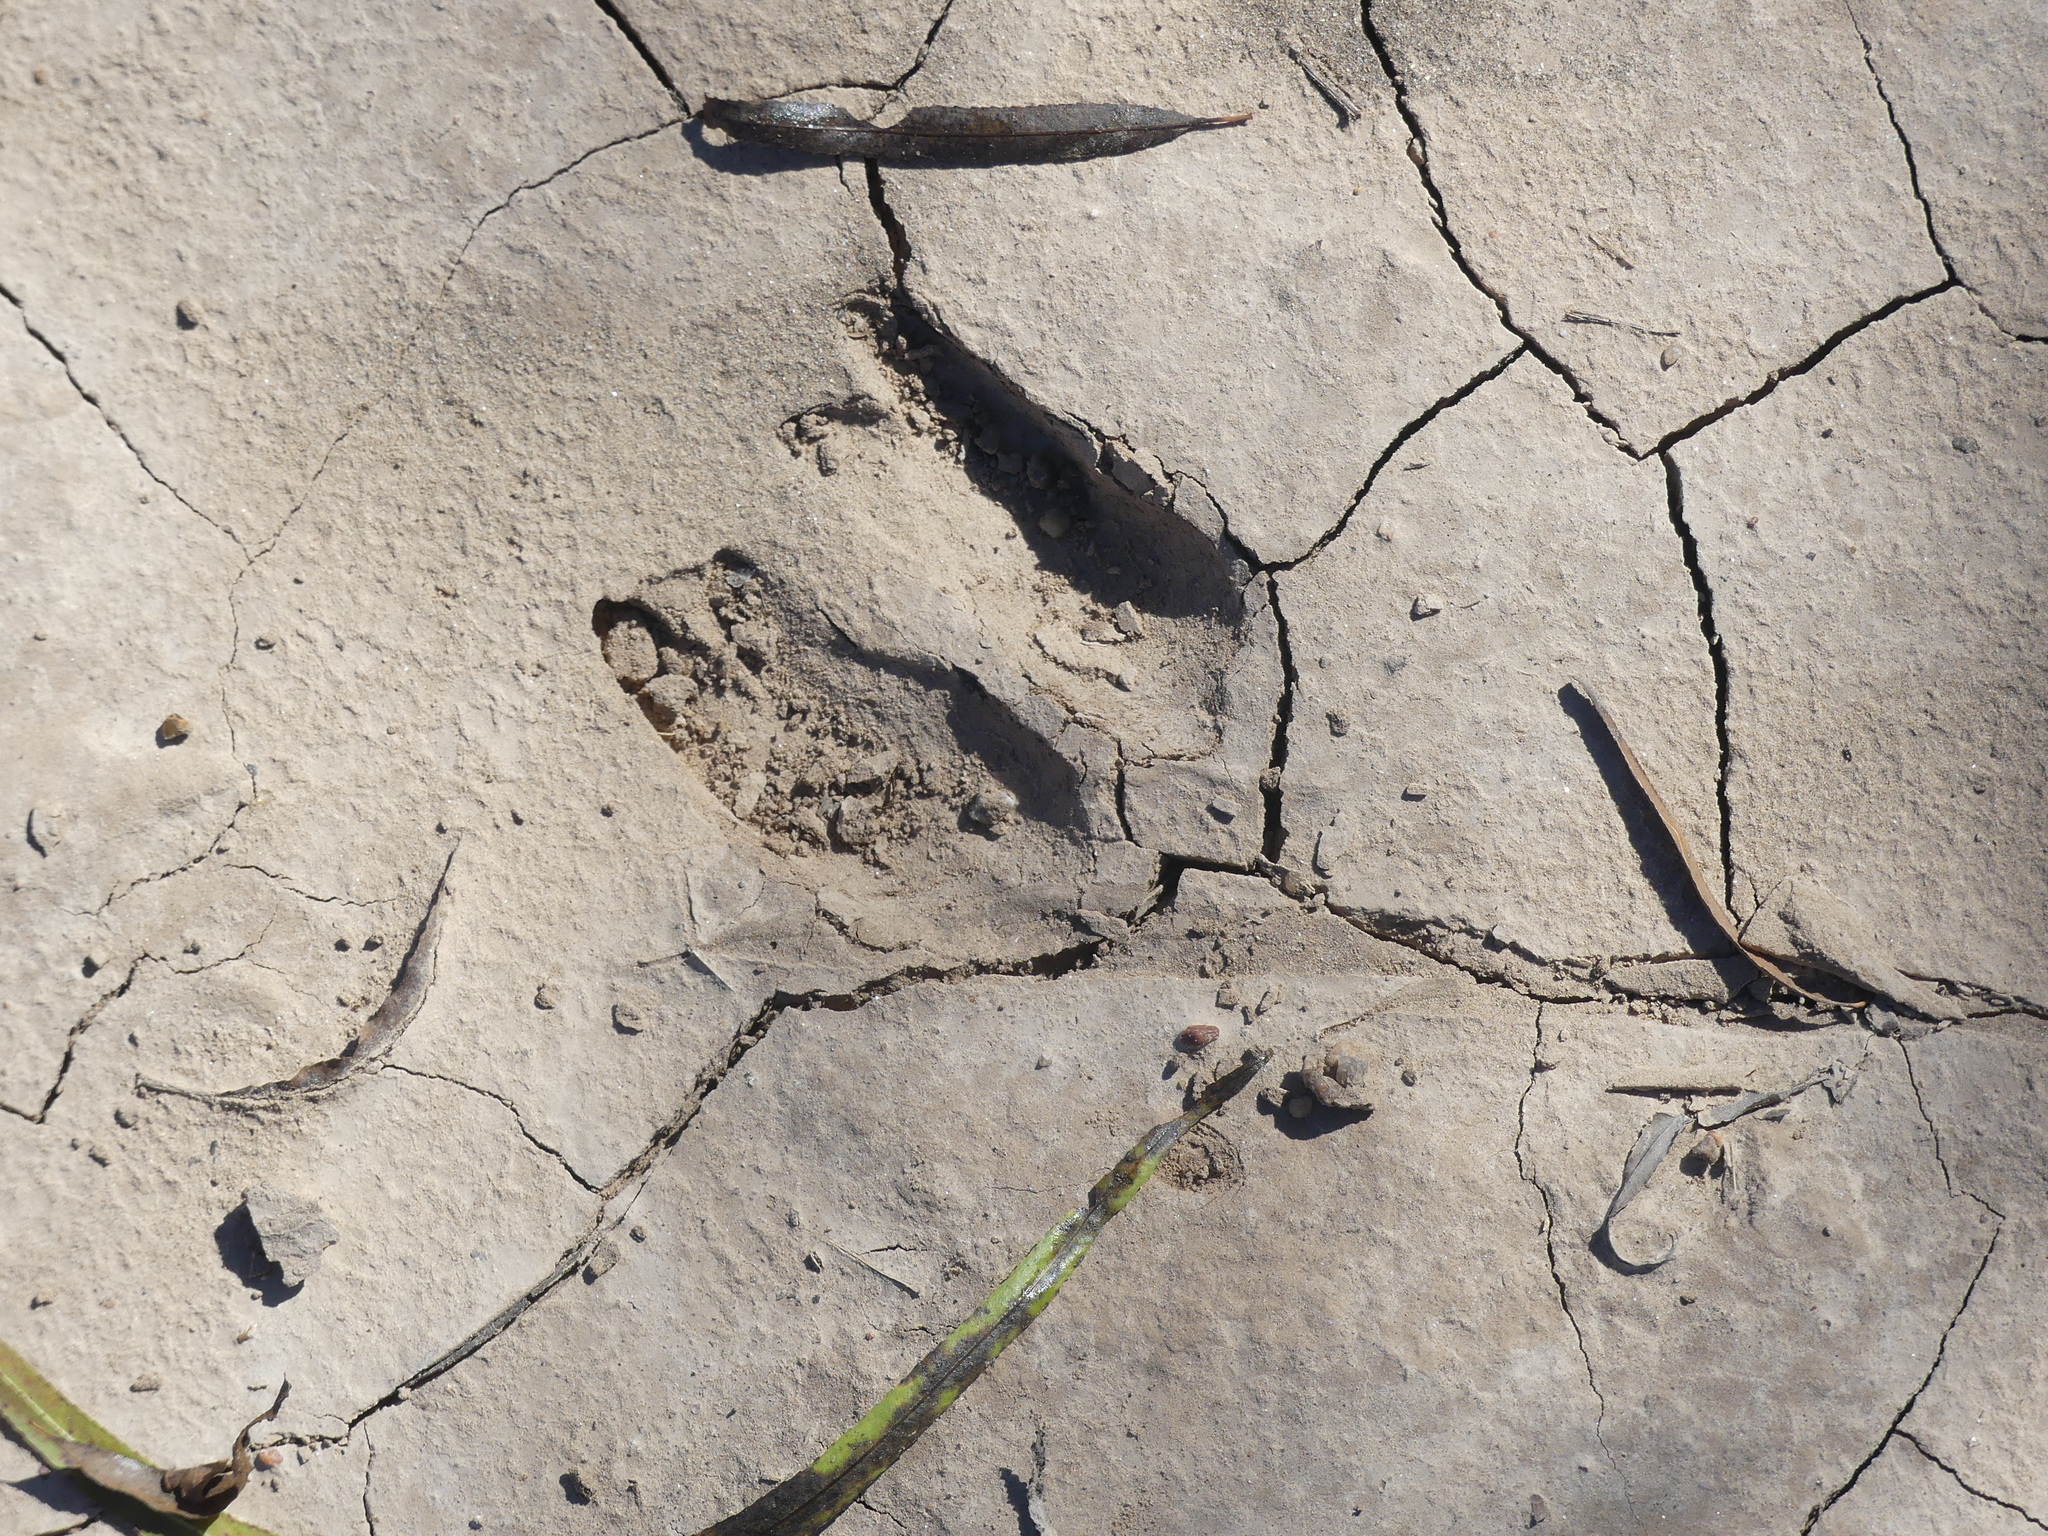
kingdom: Animalia
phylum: Chordata
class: Mammalia
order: Artiodactyla
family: Cervidae
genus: Odocoileus
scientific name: Odocoileus virginianus
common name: White-tailed deer
